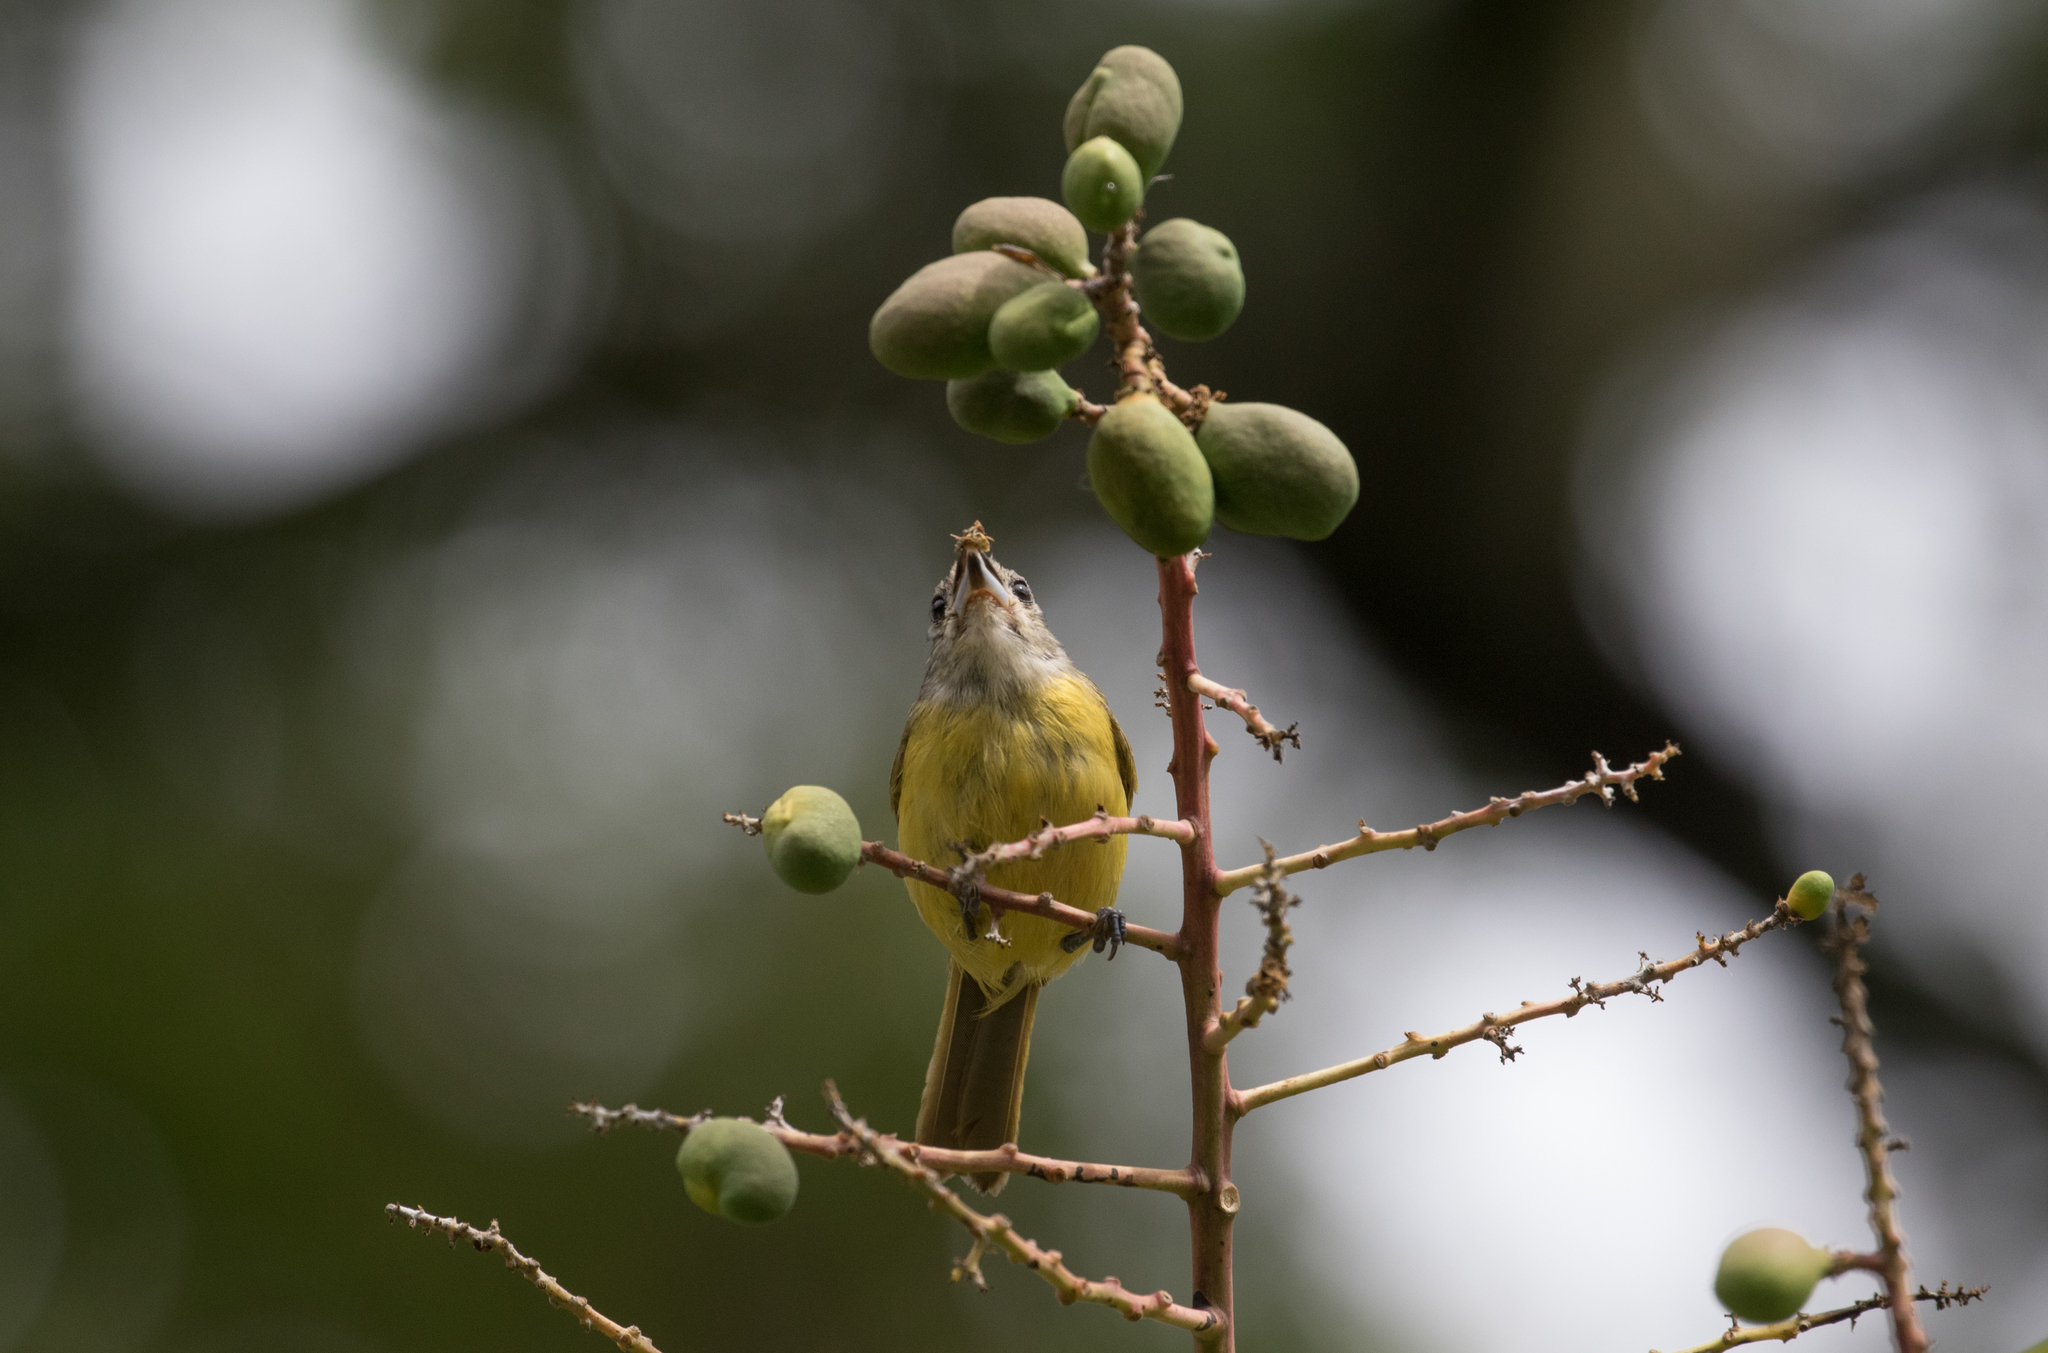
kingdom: Animalia
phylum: Chordata
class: Aves
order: Passeriformes
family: Thraupidae
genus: Loriotus
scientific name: Loriotus luctuosus
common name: White-shouldered tanager
